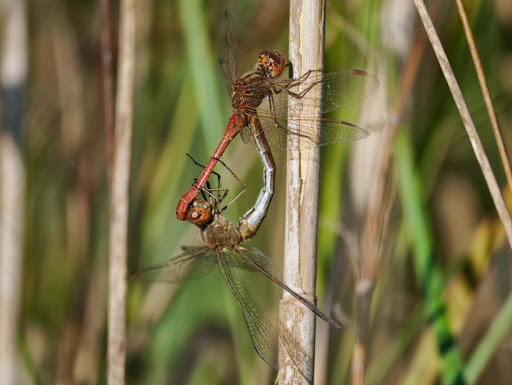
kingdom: Animalia
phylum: Arthropoda
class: Insecta
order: Odonata
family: Libellulidae
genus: Sympetrum
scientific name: Sympetrum meridionale
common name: Southern darter
